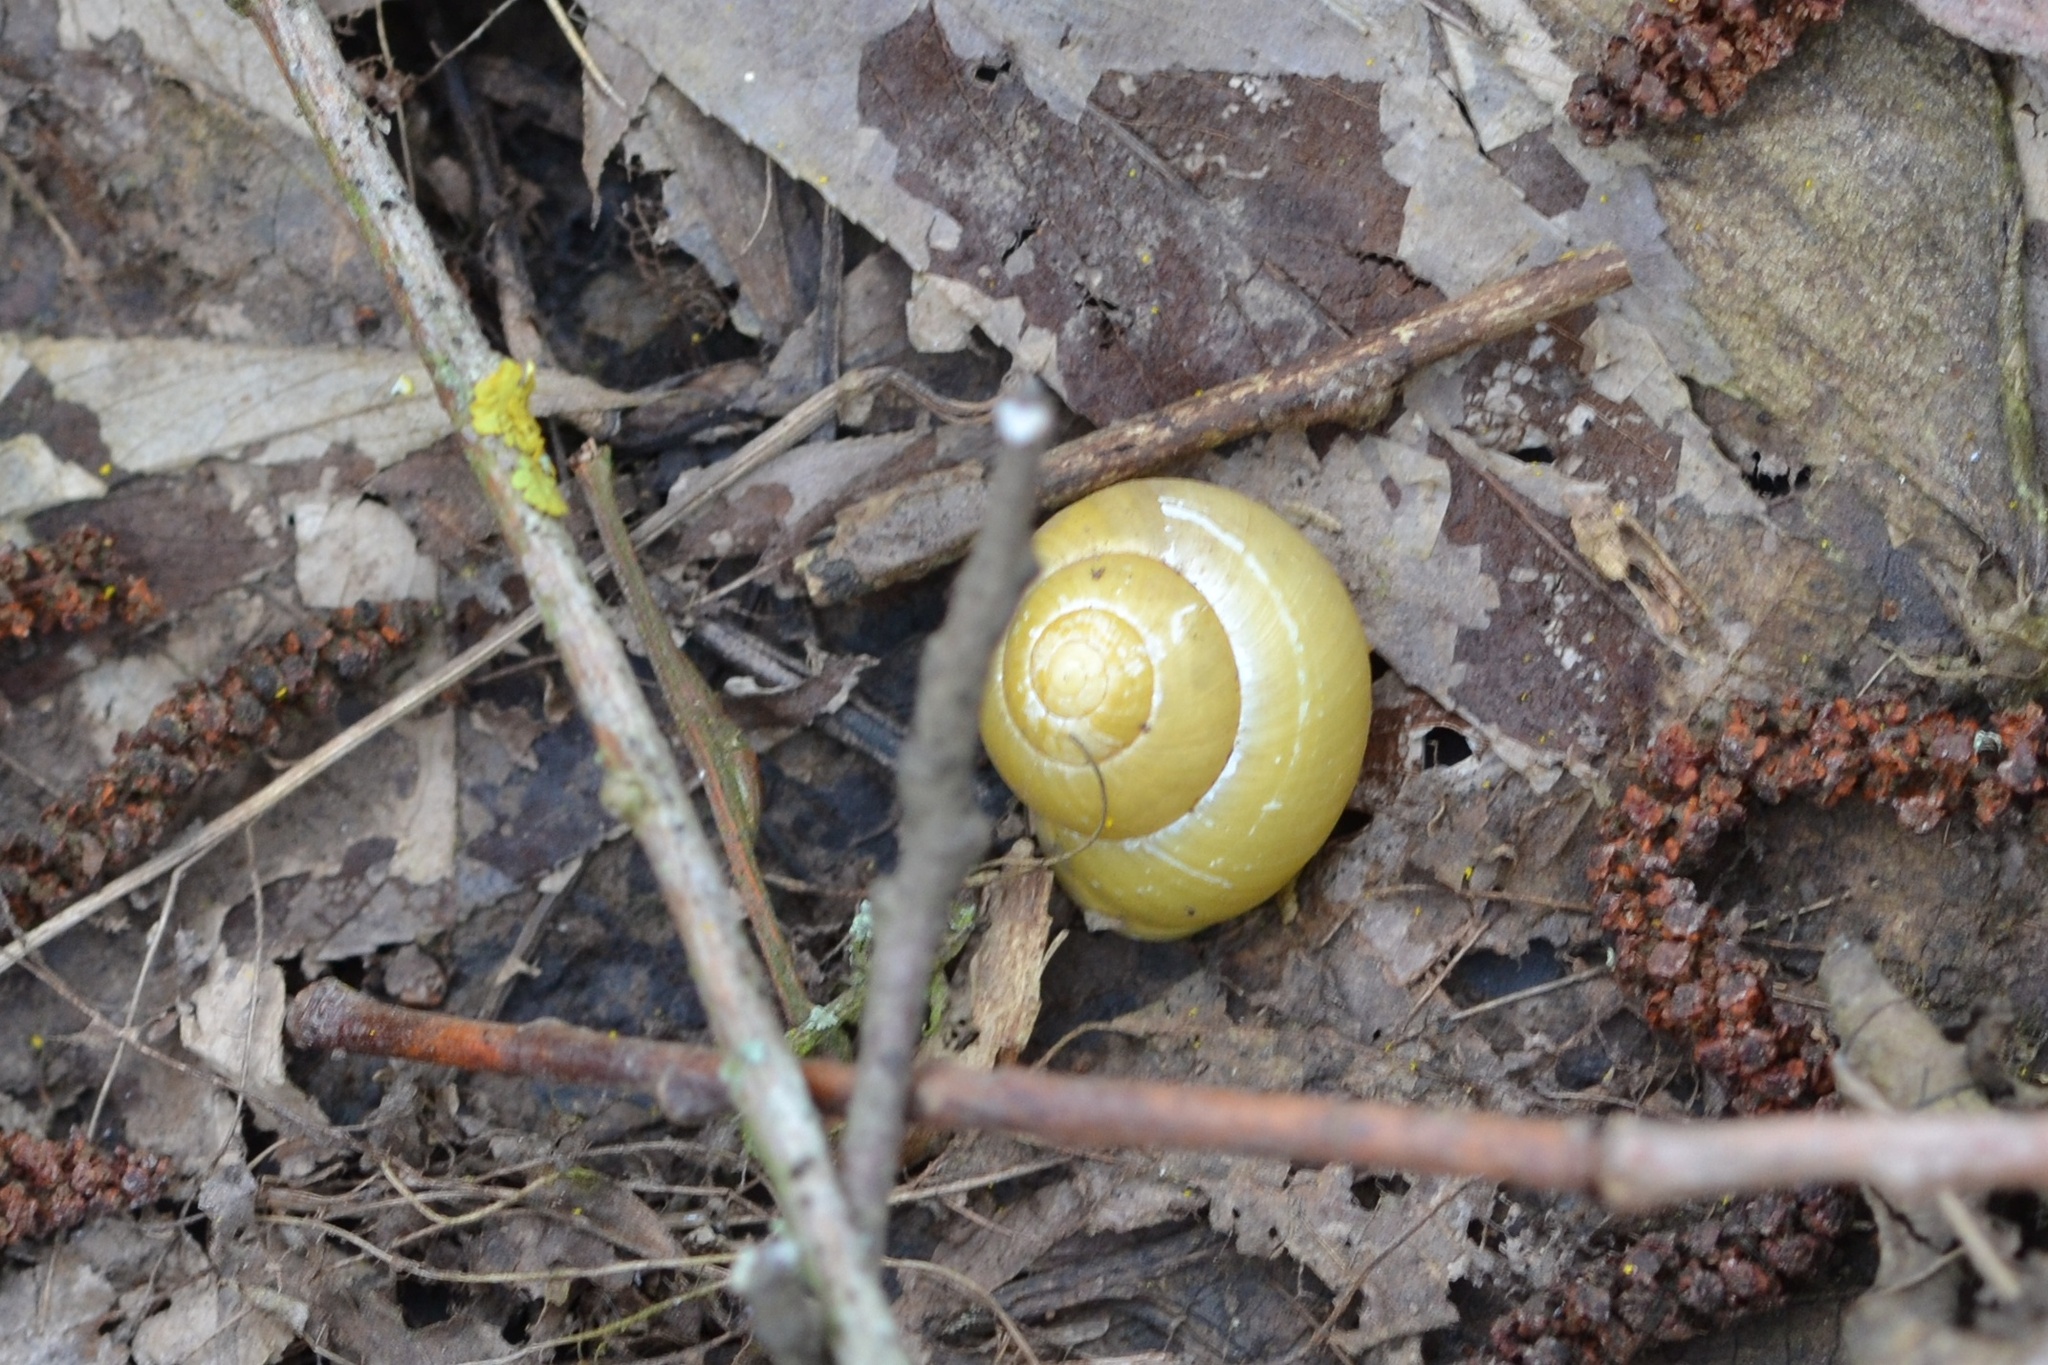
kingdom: Animalia
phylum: Mollusca
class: Gastropoda
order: Stylommatophora
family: Helicidae
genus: Cepaea
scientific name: Cepaea hortensis
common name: White-lip gardensnail
